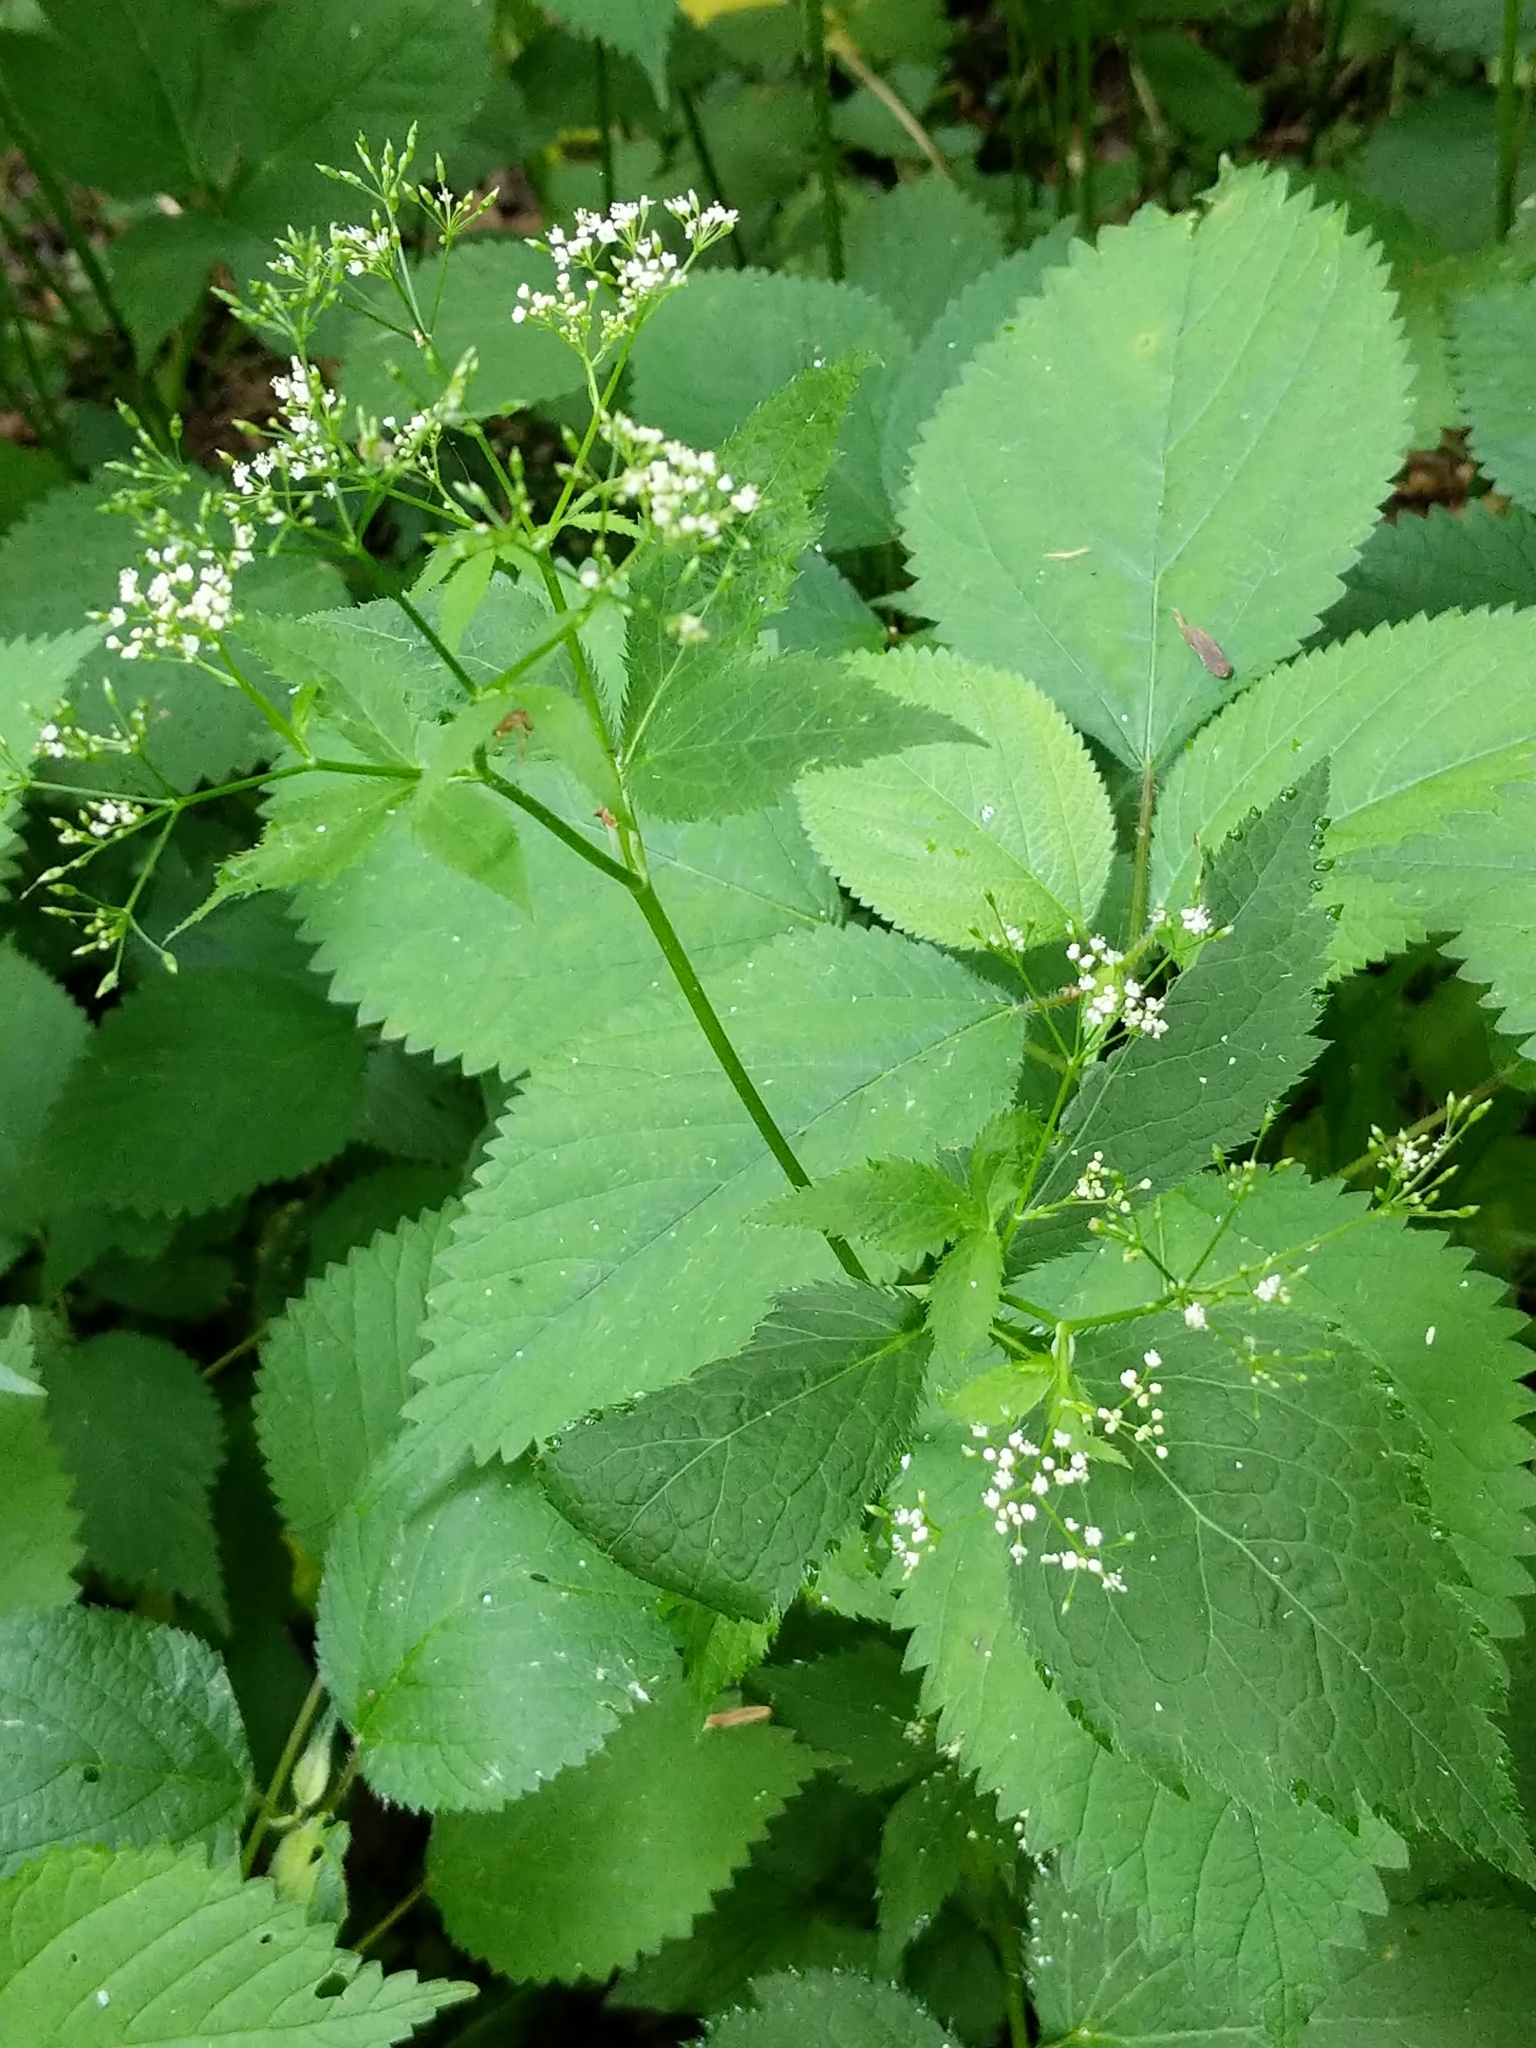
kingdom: Plantae
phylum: Tracheophyta
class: Magnoliopsida
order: Apiales
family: Apiaceae
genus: Cryptotaenia
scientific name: Cryptotaenia canadensis
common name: Honewort
